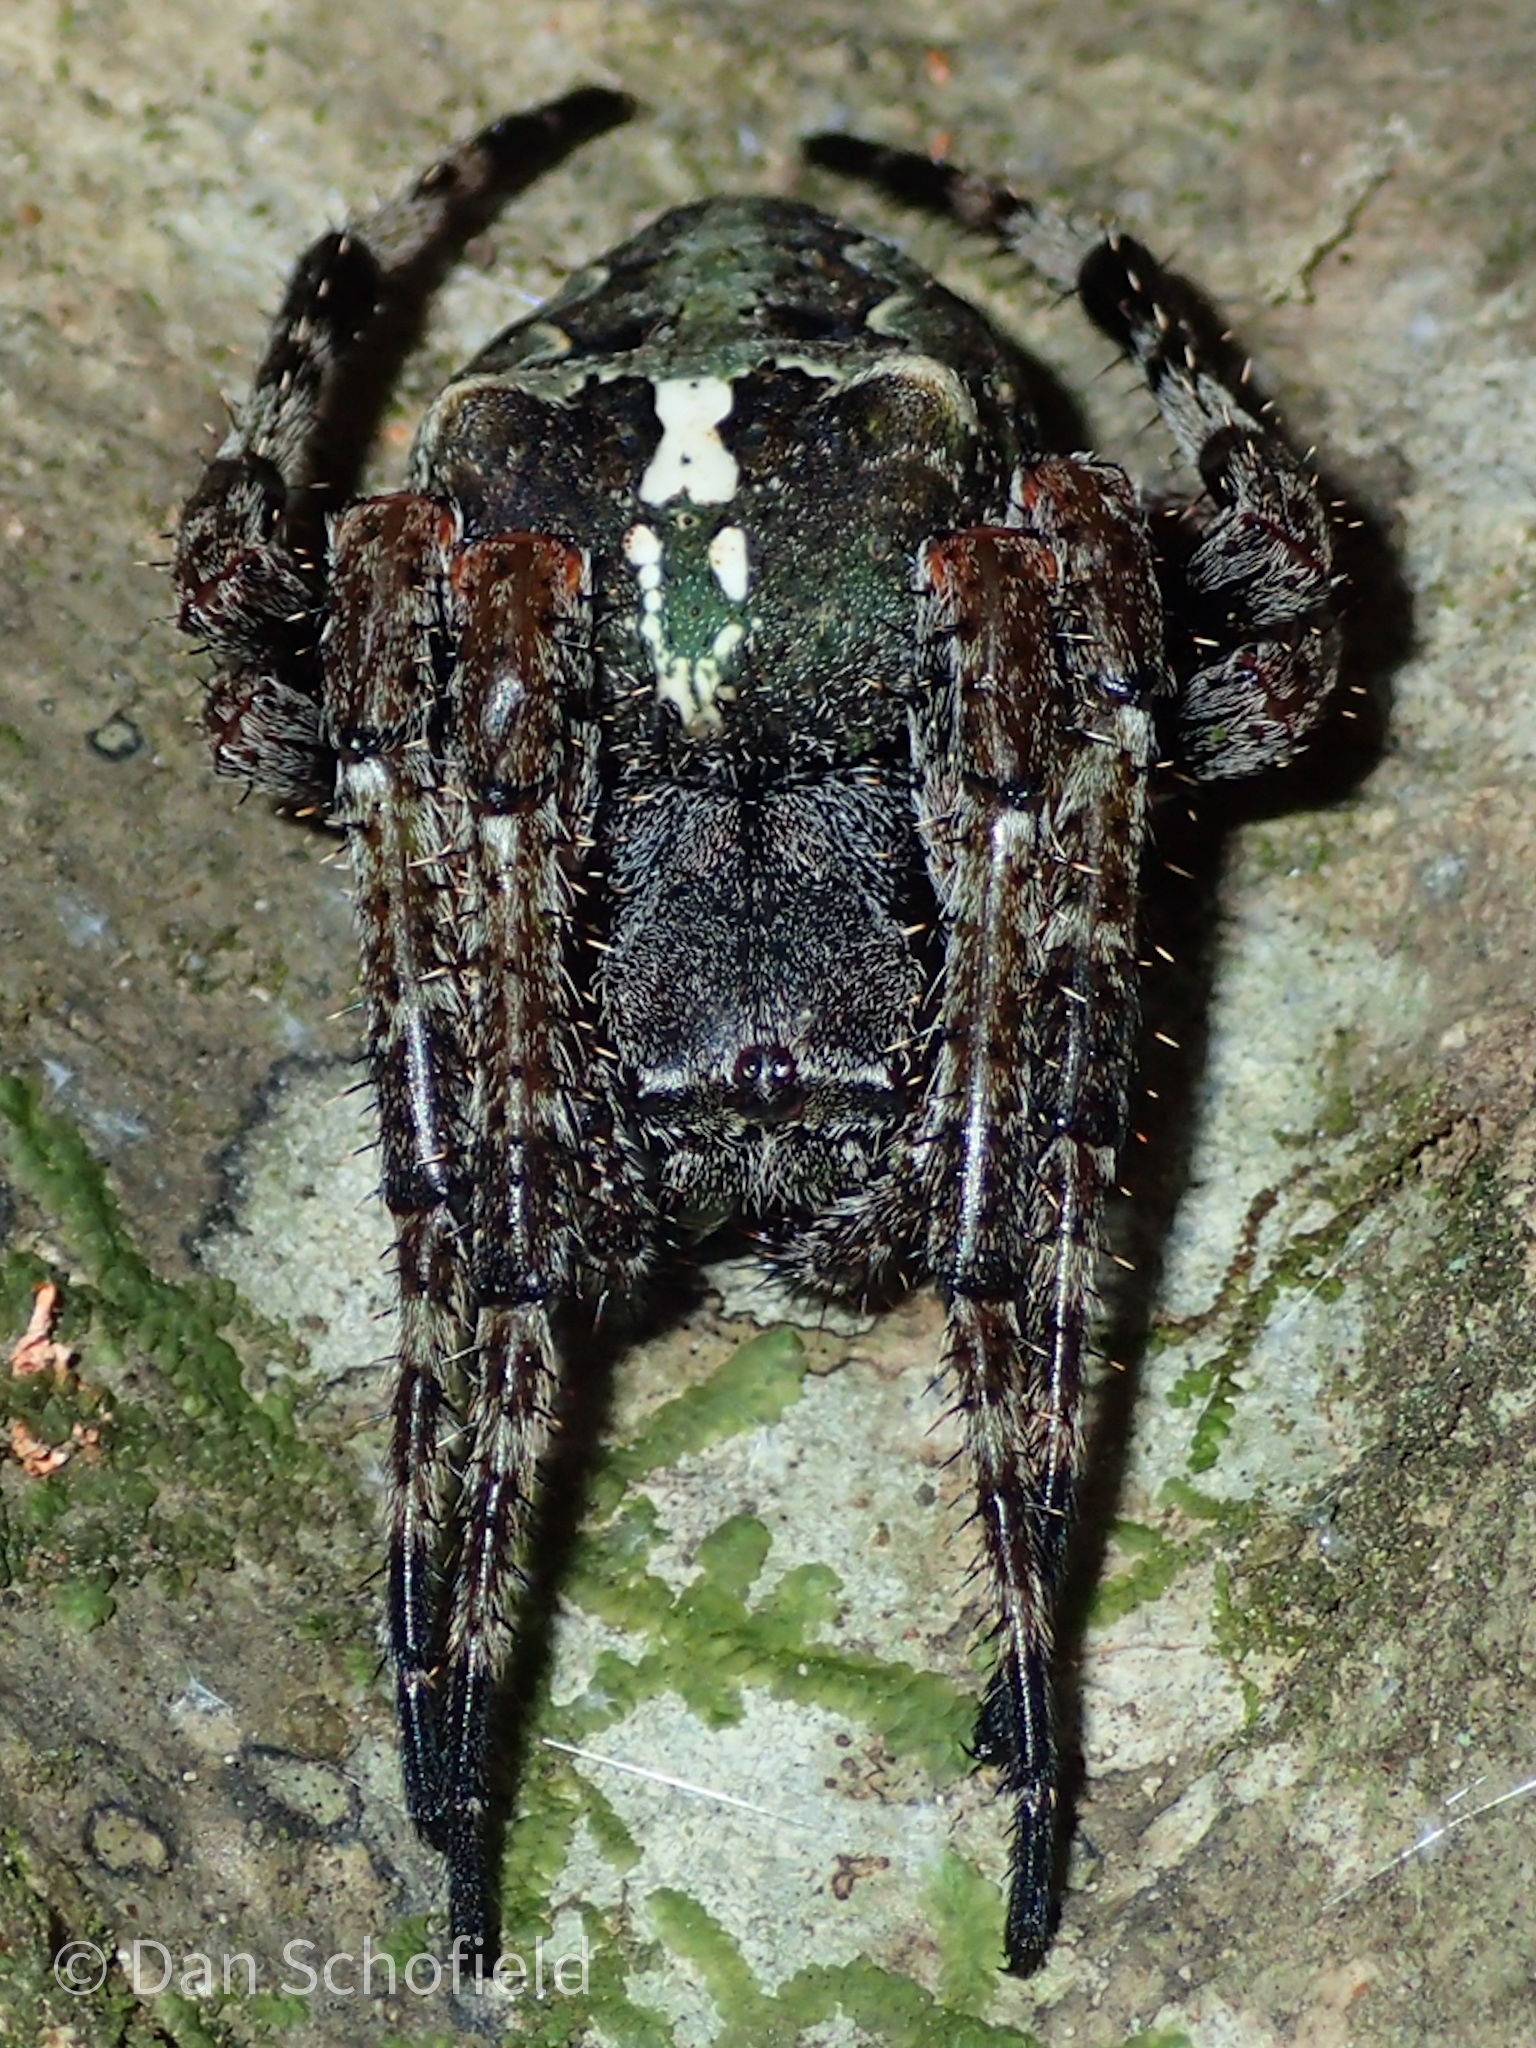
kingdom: Animalia
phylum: Arthropoda
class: Arachnida
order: Araneae
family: Araneidae
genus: Araneus
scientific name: Araneus bicentenarius
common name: Giant lichen orbweaver
